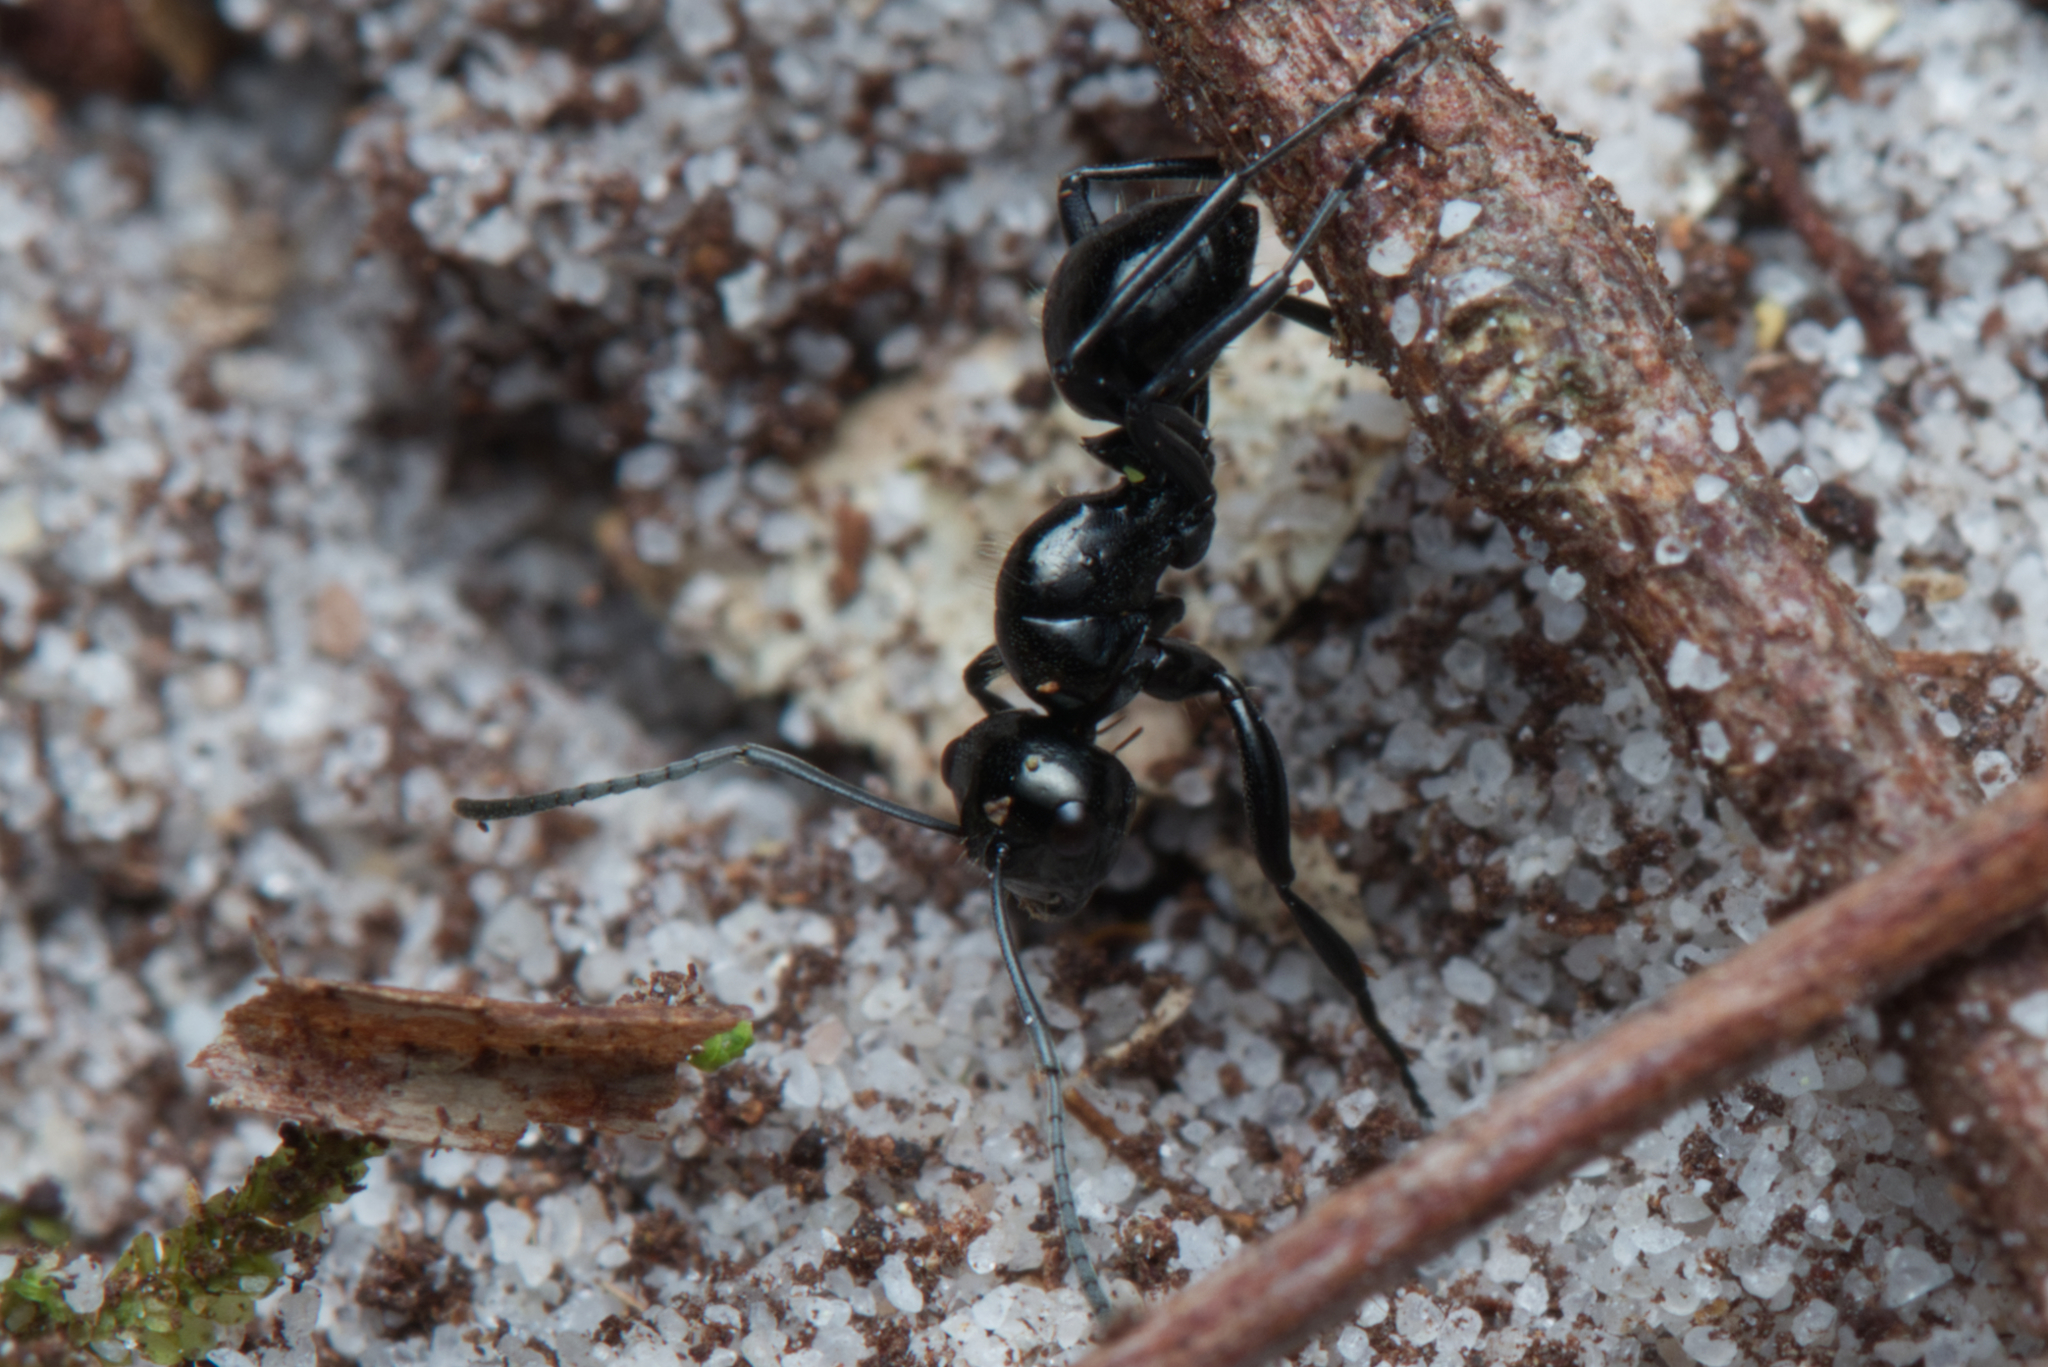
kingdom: Animalia
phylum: Arthropoda
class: Insecta
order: Hymenoptera
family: Formicidae
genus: Polyrhachis
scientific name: Polyrhachis pilosa
